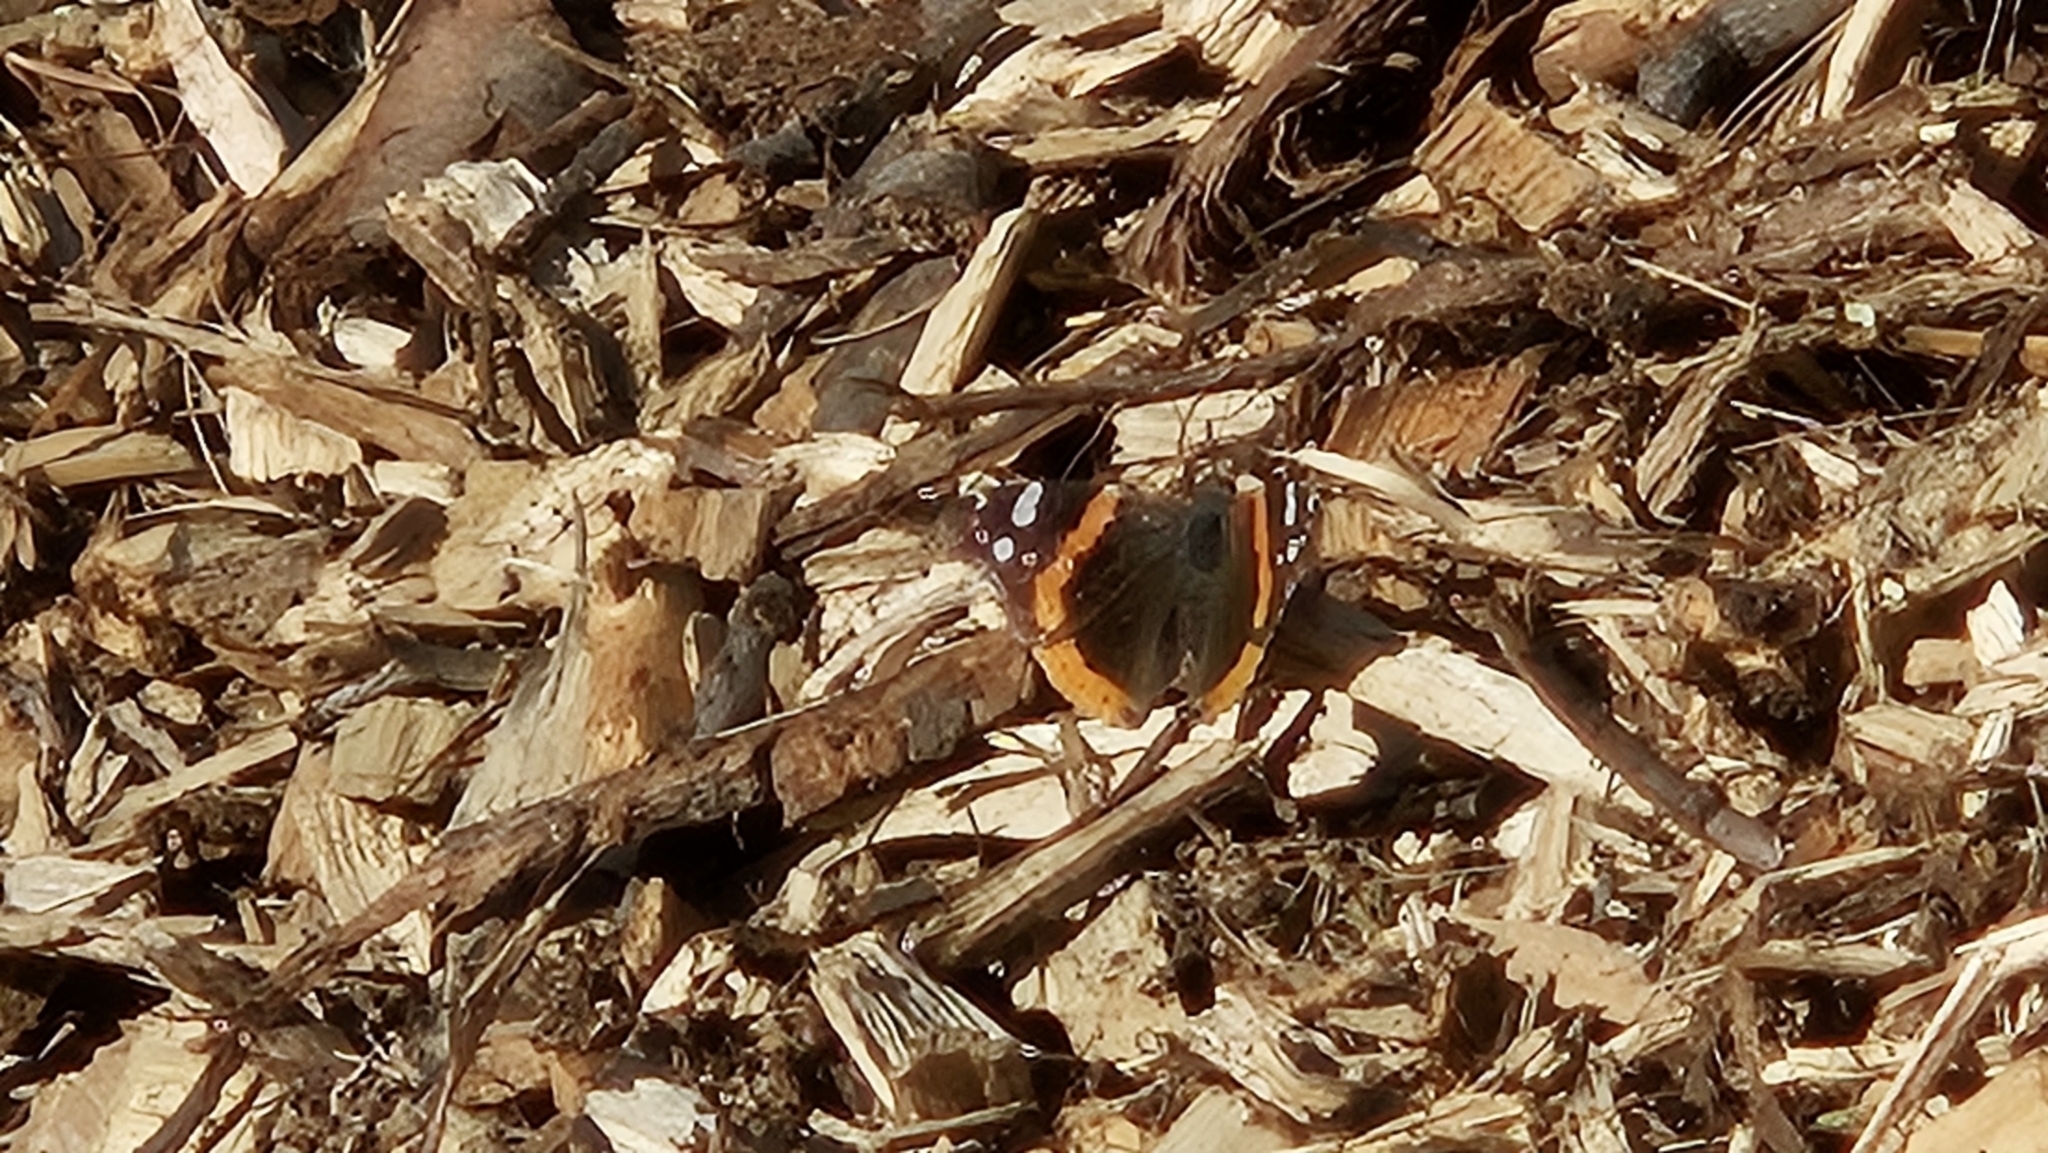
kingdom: Animalia
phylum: Arthropoda
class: Insecta
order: Lepidoptera
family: Nymphalidae
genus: Vanessa
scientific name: Vanessa atalanta
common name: Red admiral
